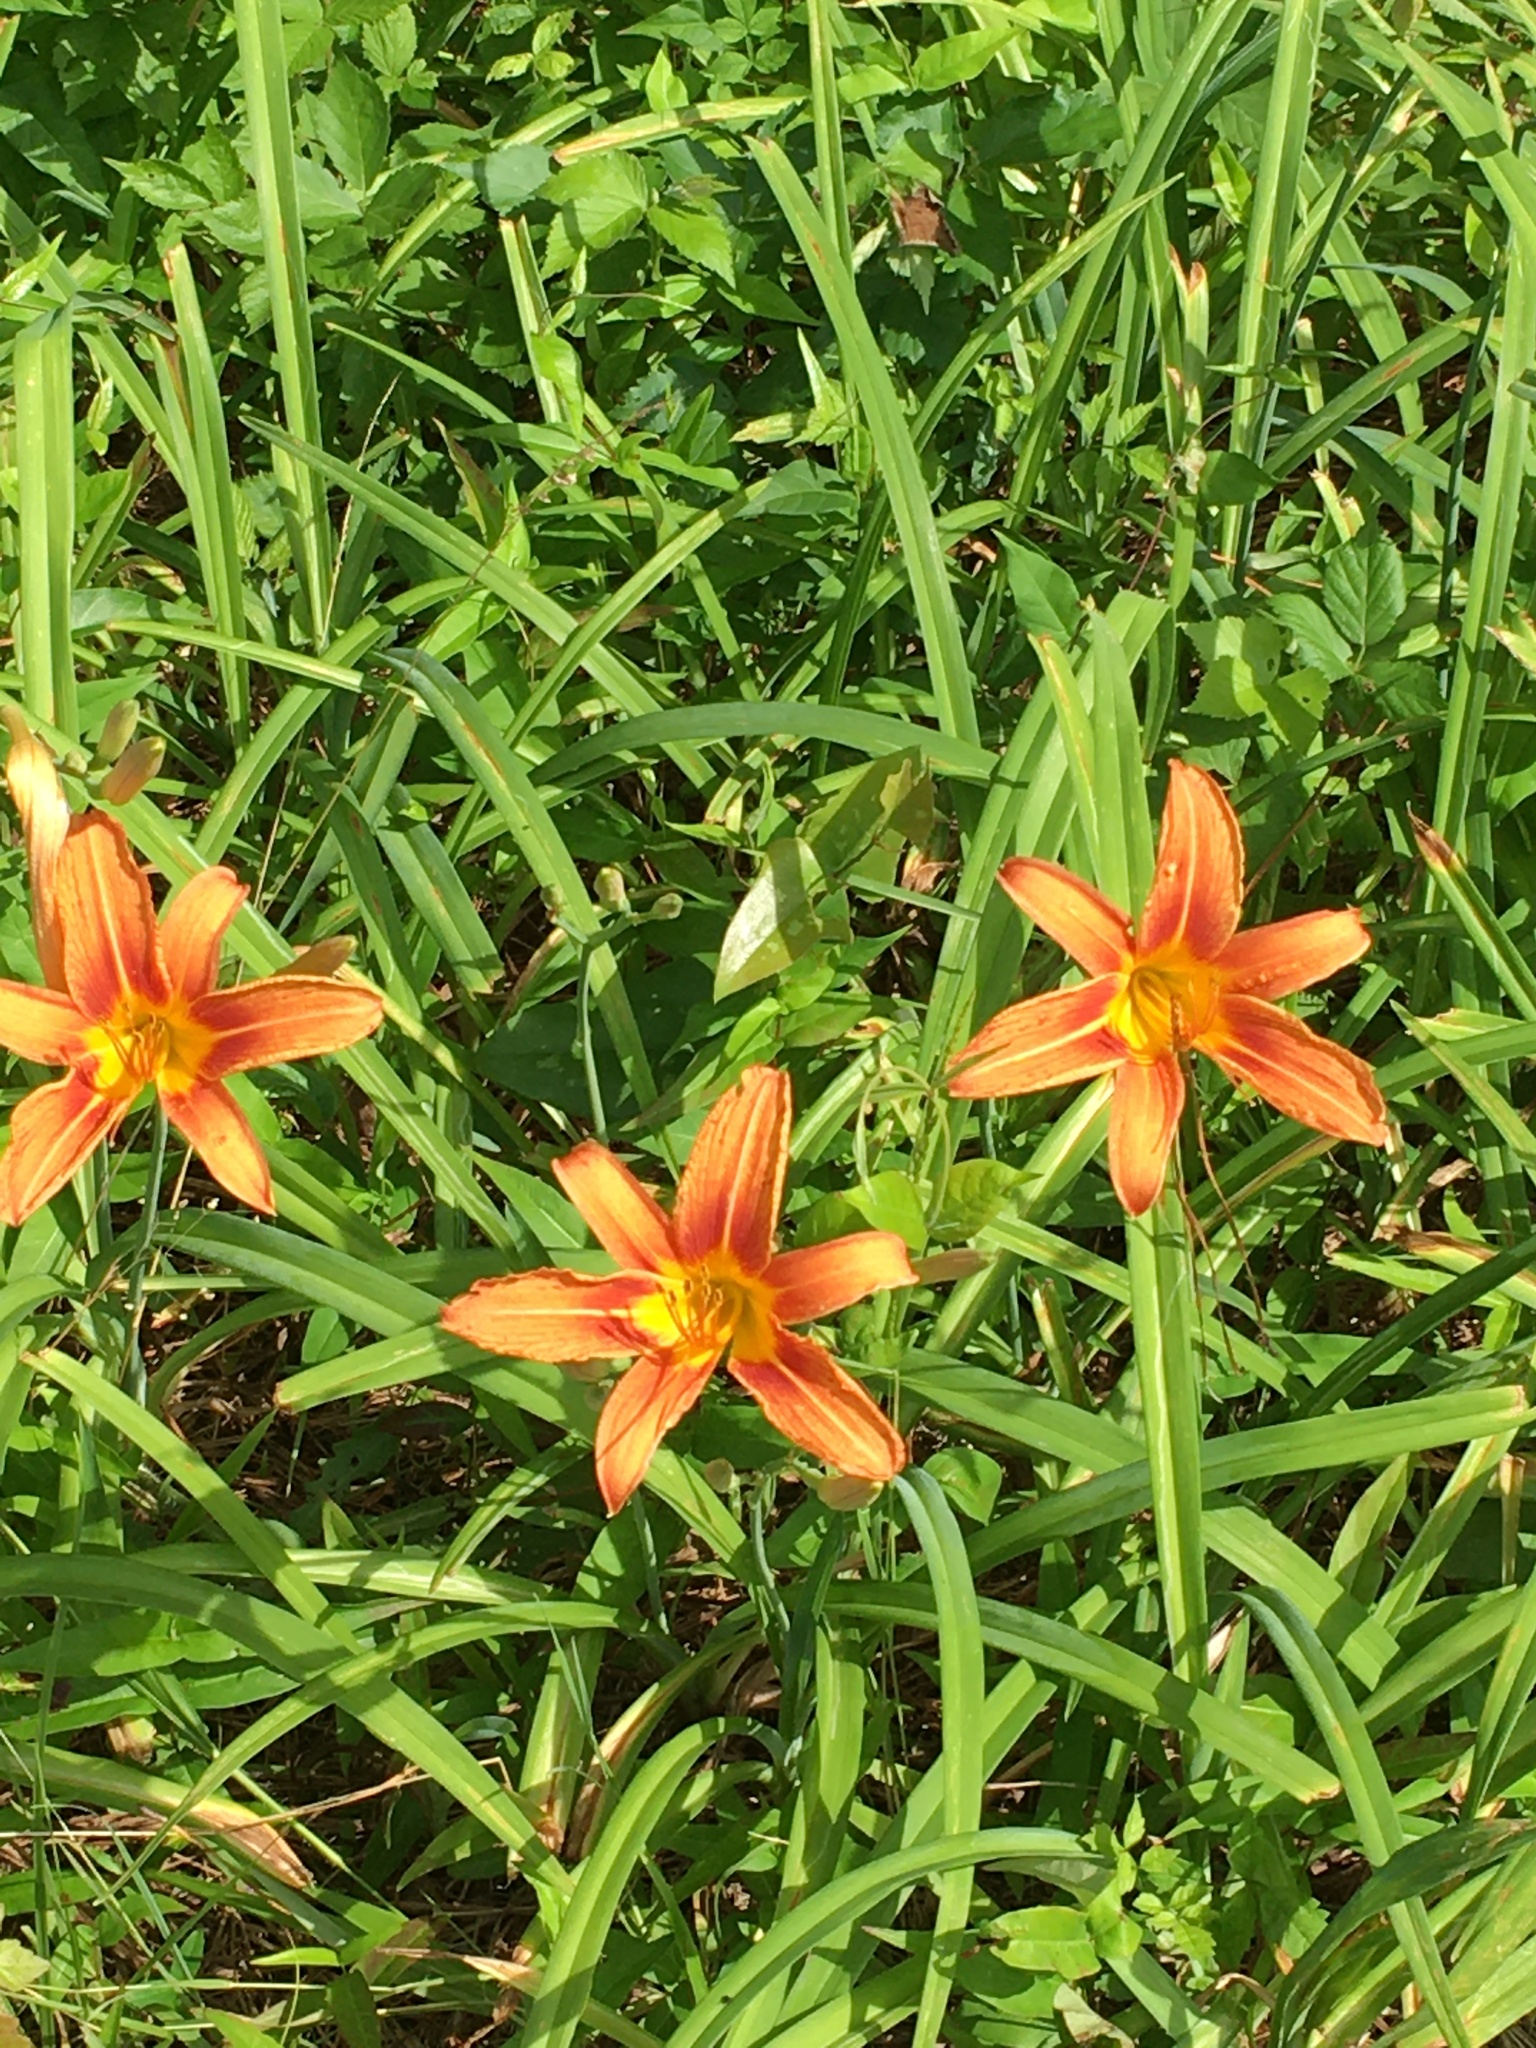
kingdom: Plantae
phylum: Tracheophyta
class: Liliopsida
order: Asparagales
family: Asphodelaceae
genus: Hemerocallis
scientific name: Hemerocallis fulva
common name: Orange day-lily
